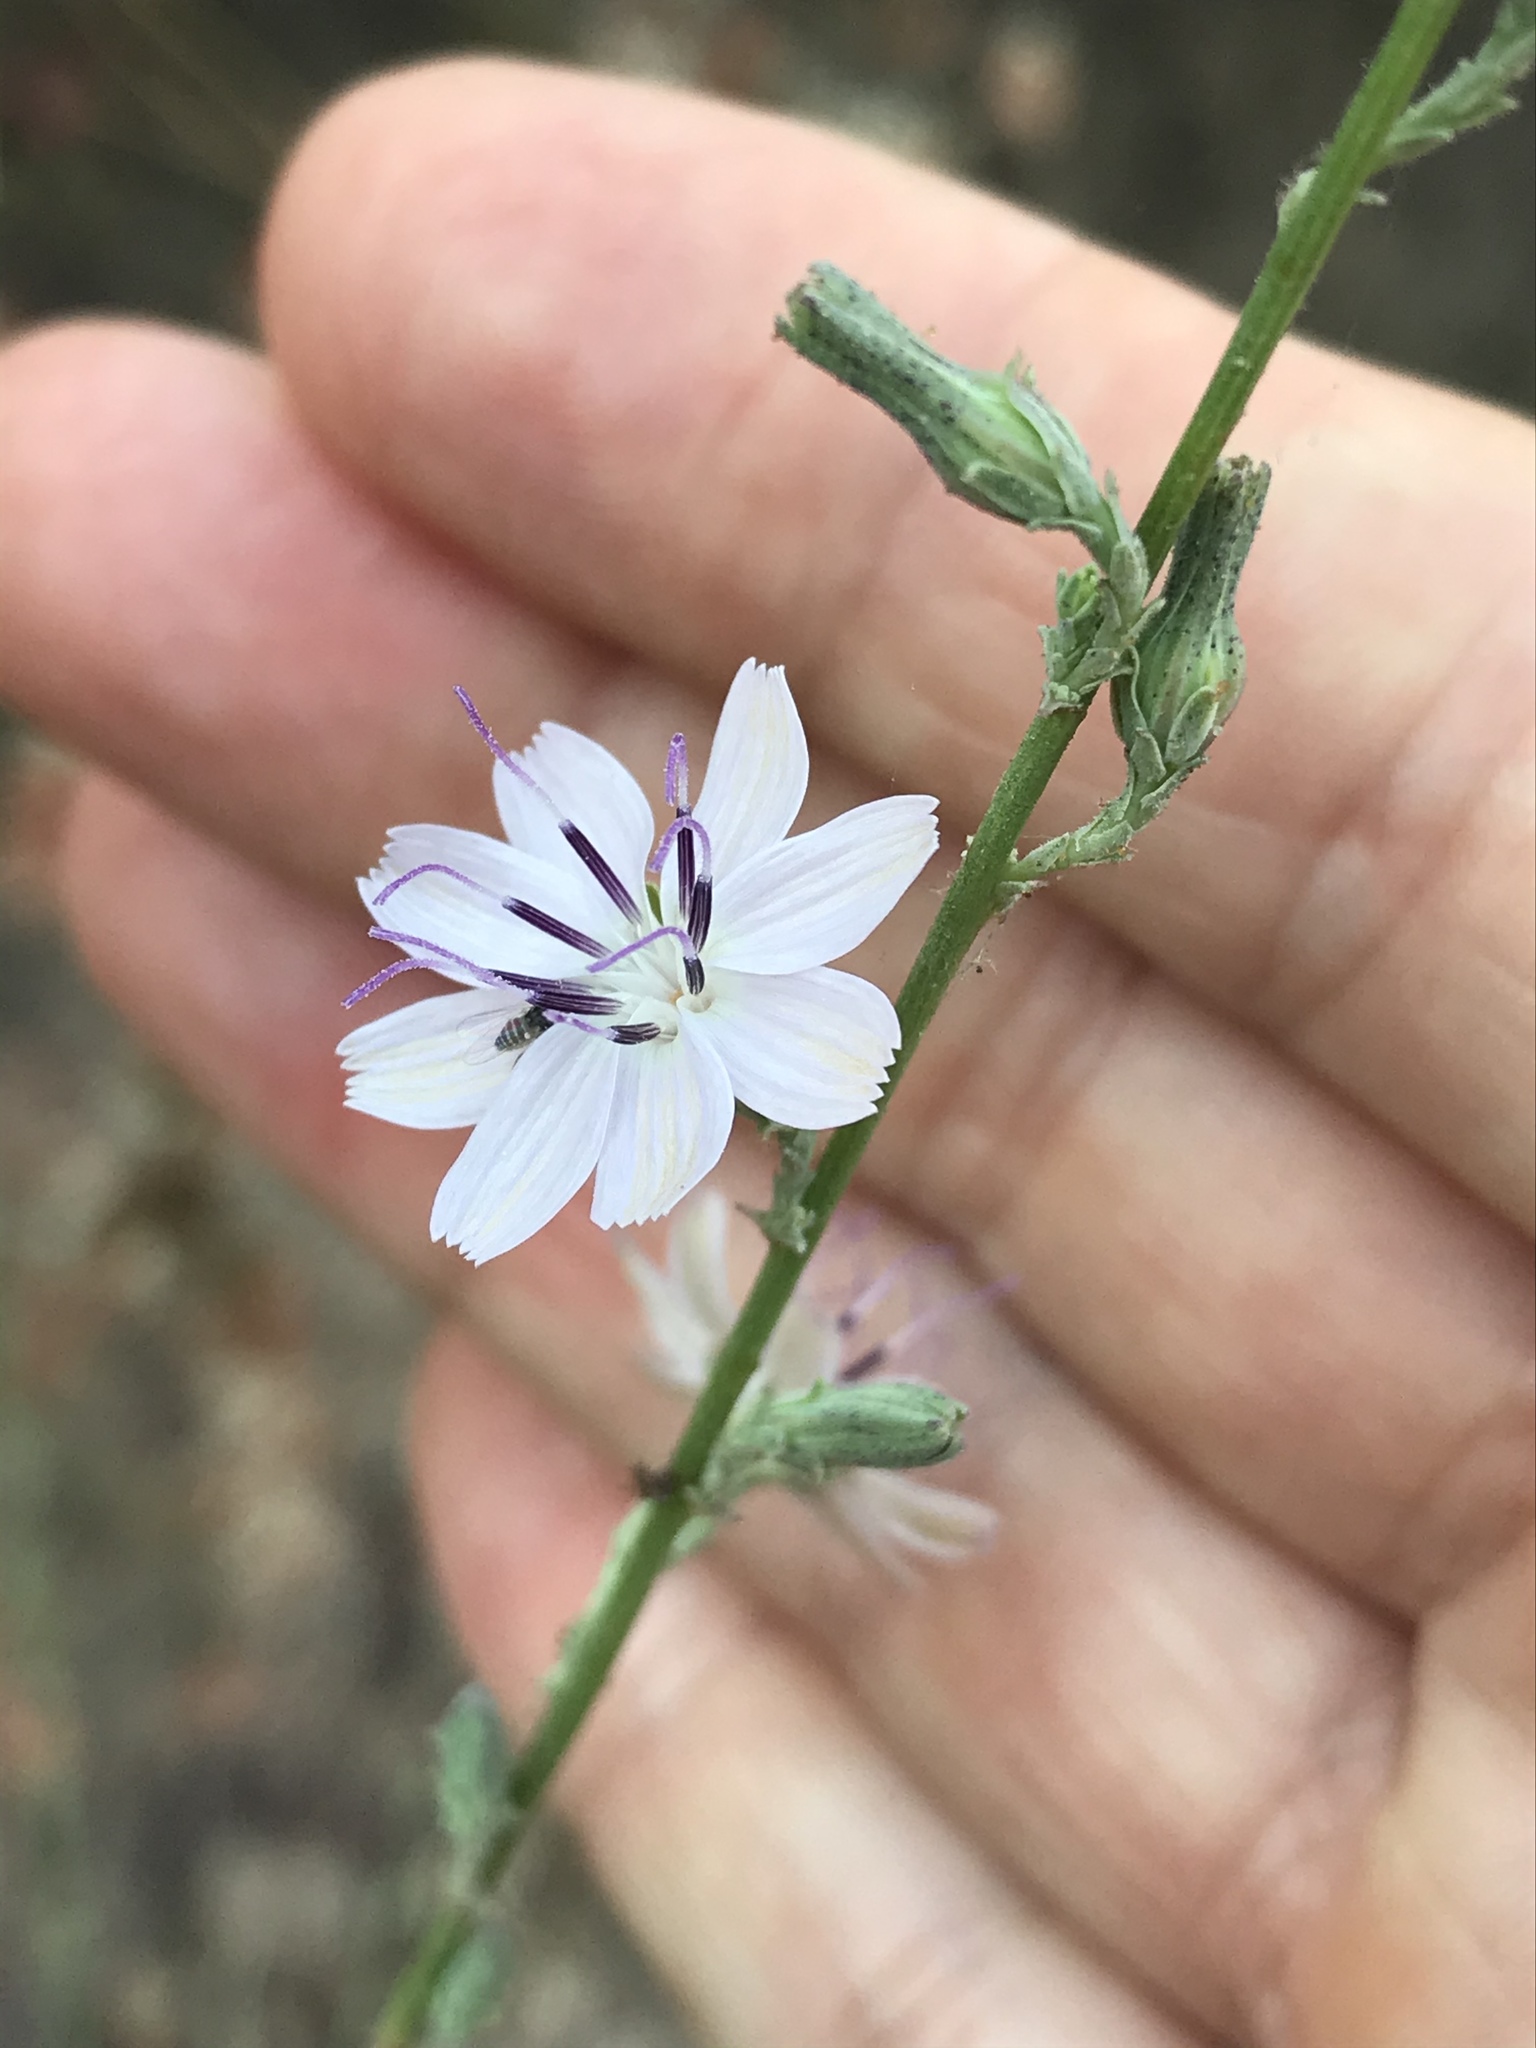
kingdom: Plantae
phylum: Tracheophyta
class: Magnoliopsida
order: Asterales
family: Asteraceae
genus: Stephanomeria
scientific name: Stephanomeria diegensis
